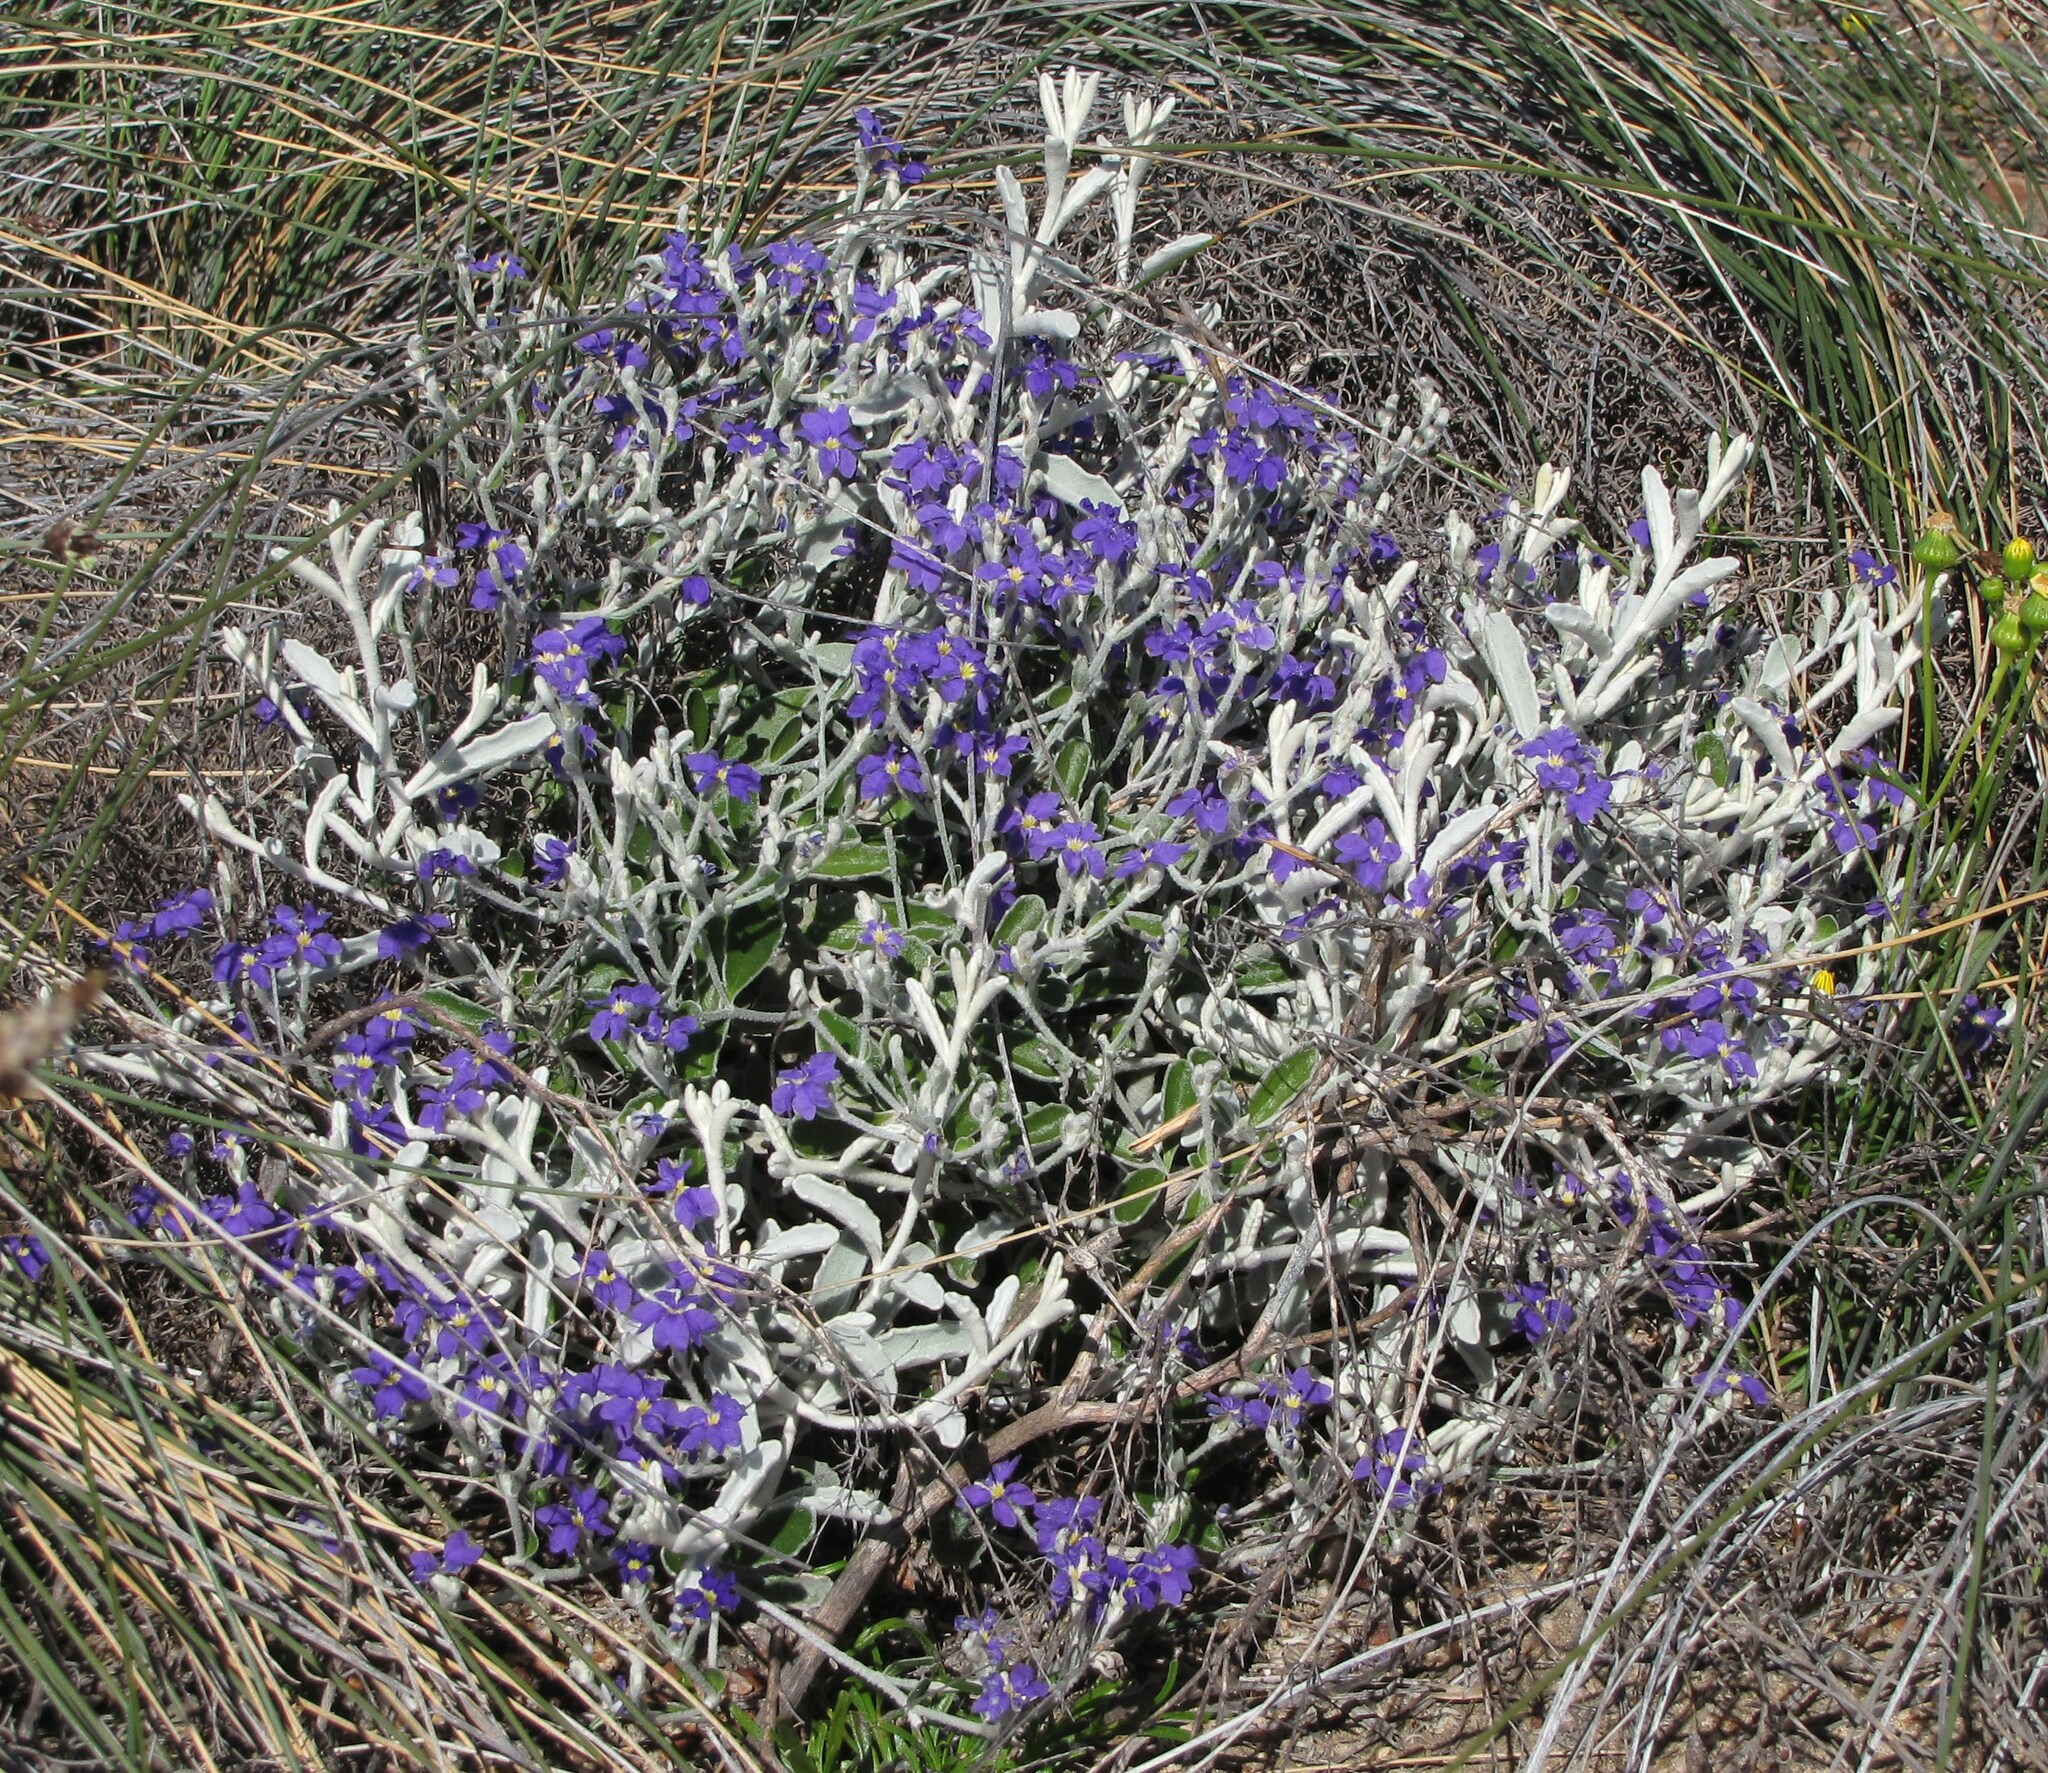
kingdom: Plantae
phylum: Tracheophyta
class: Magnoliopsida
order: Asterales
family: Goodeniaceae
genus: Dampiera
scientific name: Dampiera incana
